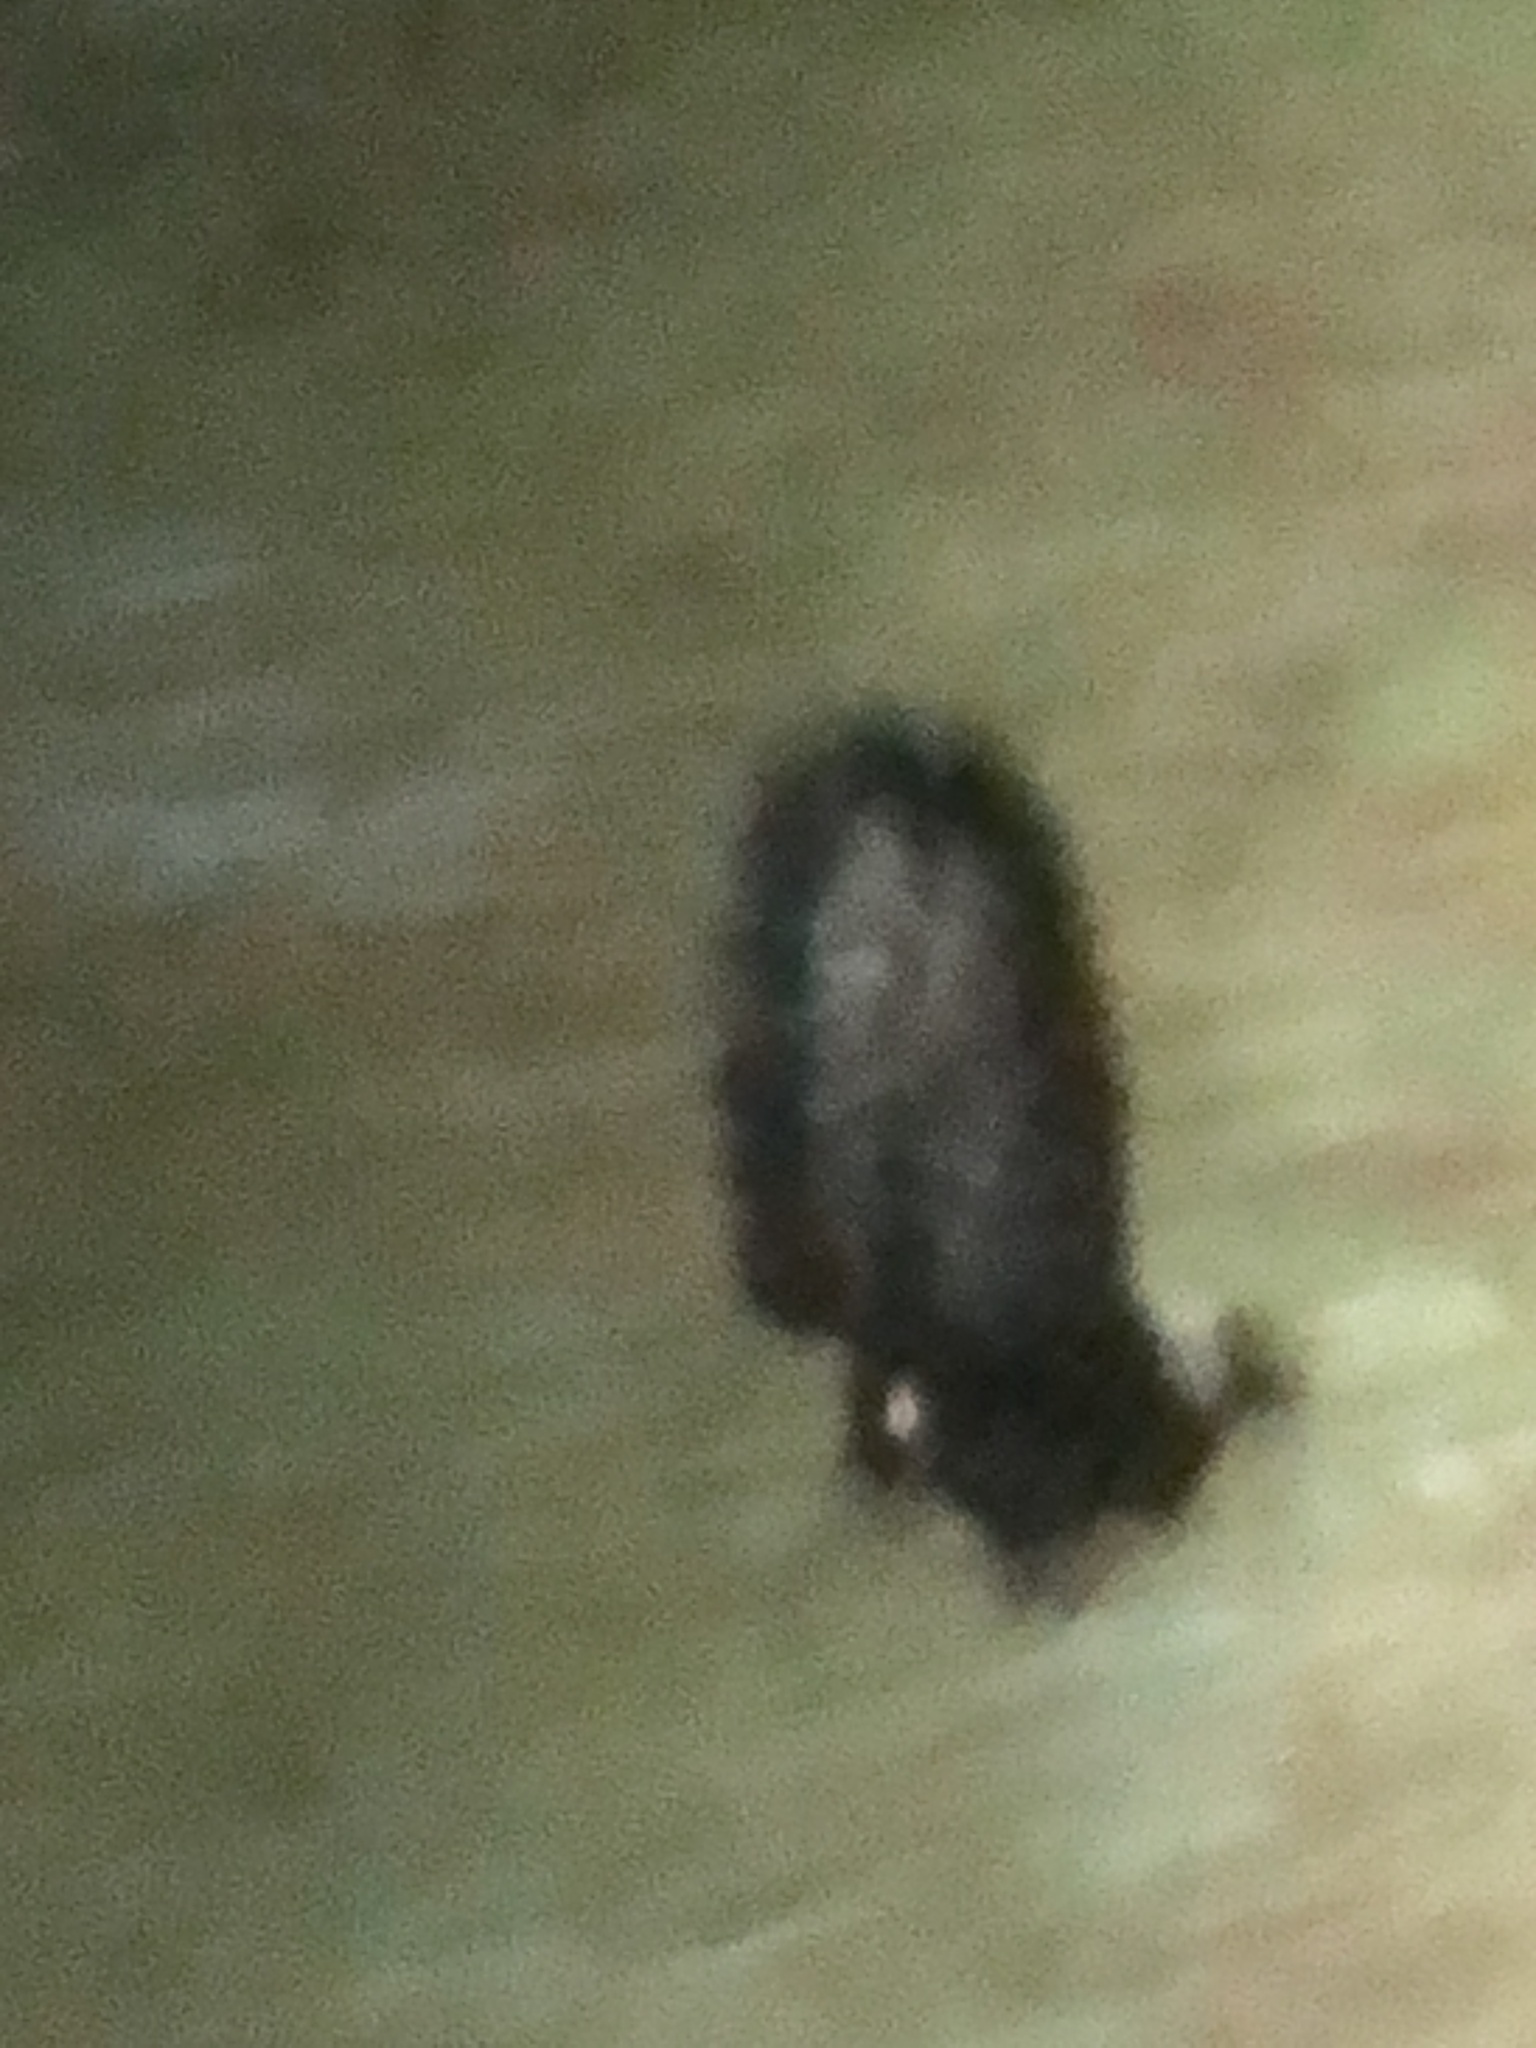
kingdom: Animalia
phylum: Chordata
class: Mammalia
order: Carnivora
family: Mephitidae
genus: Mephitis
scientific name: Mephitis mephitis
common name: Striped skunk
